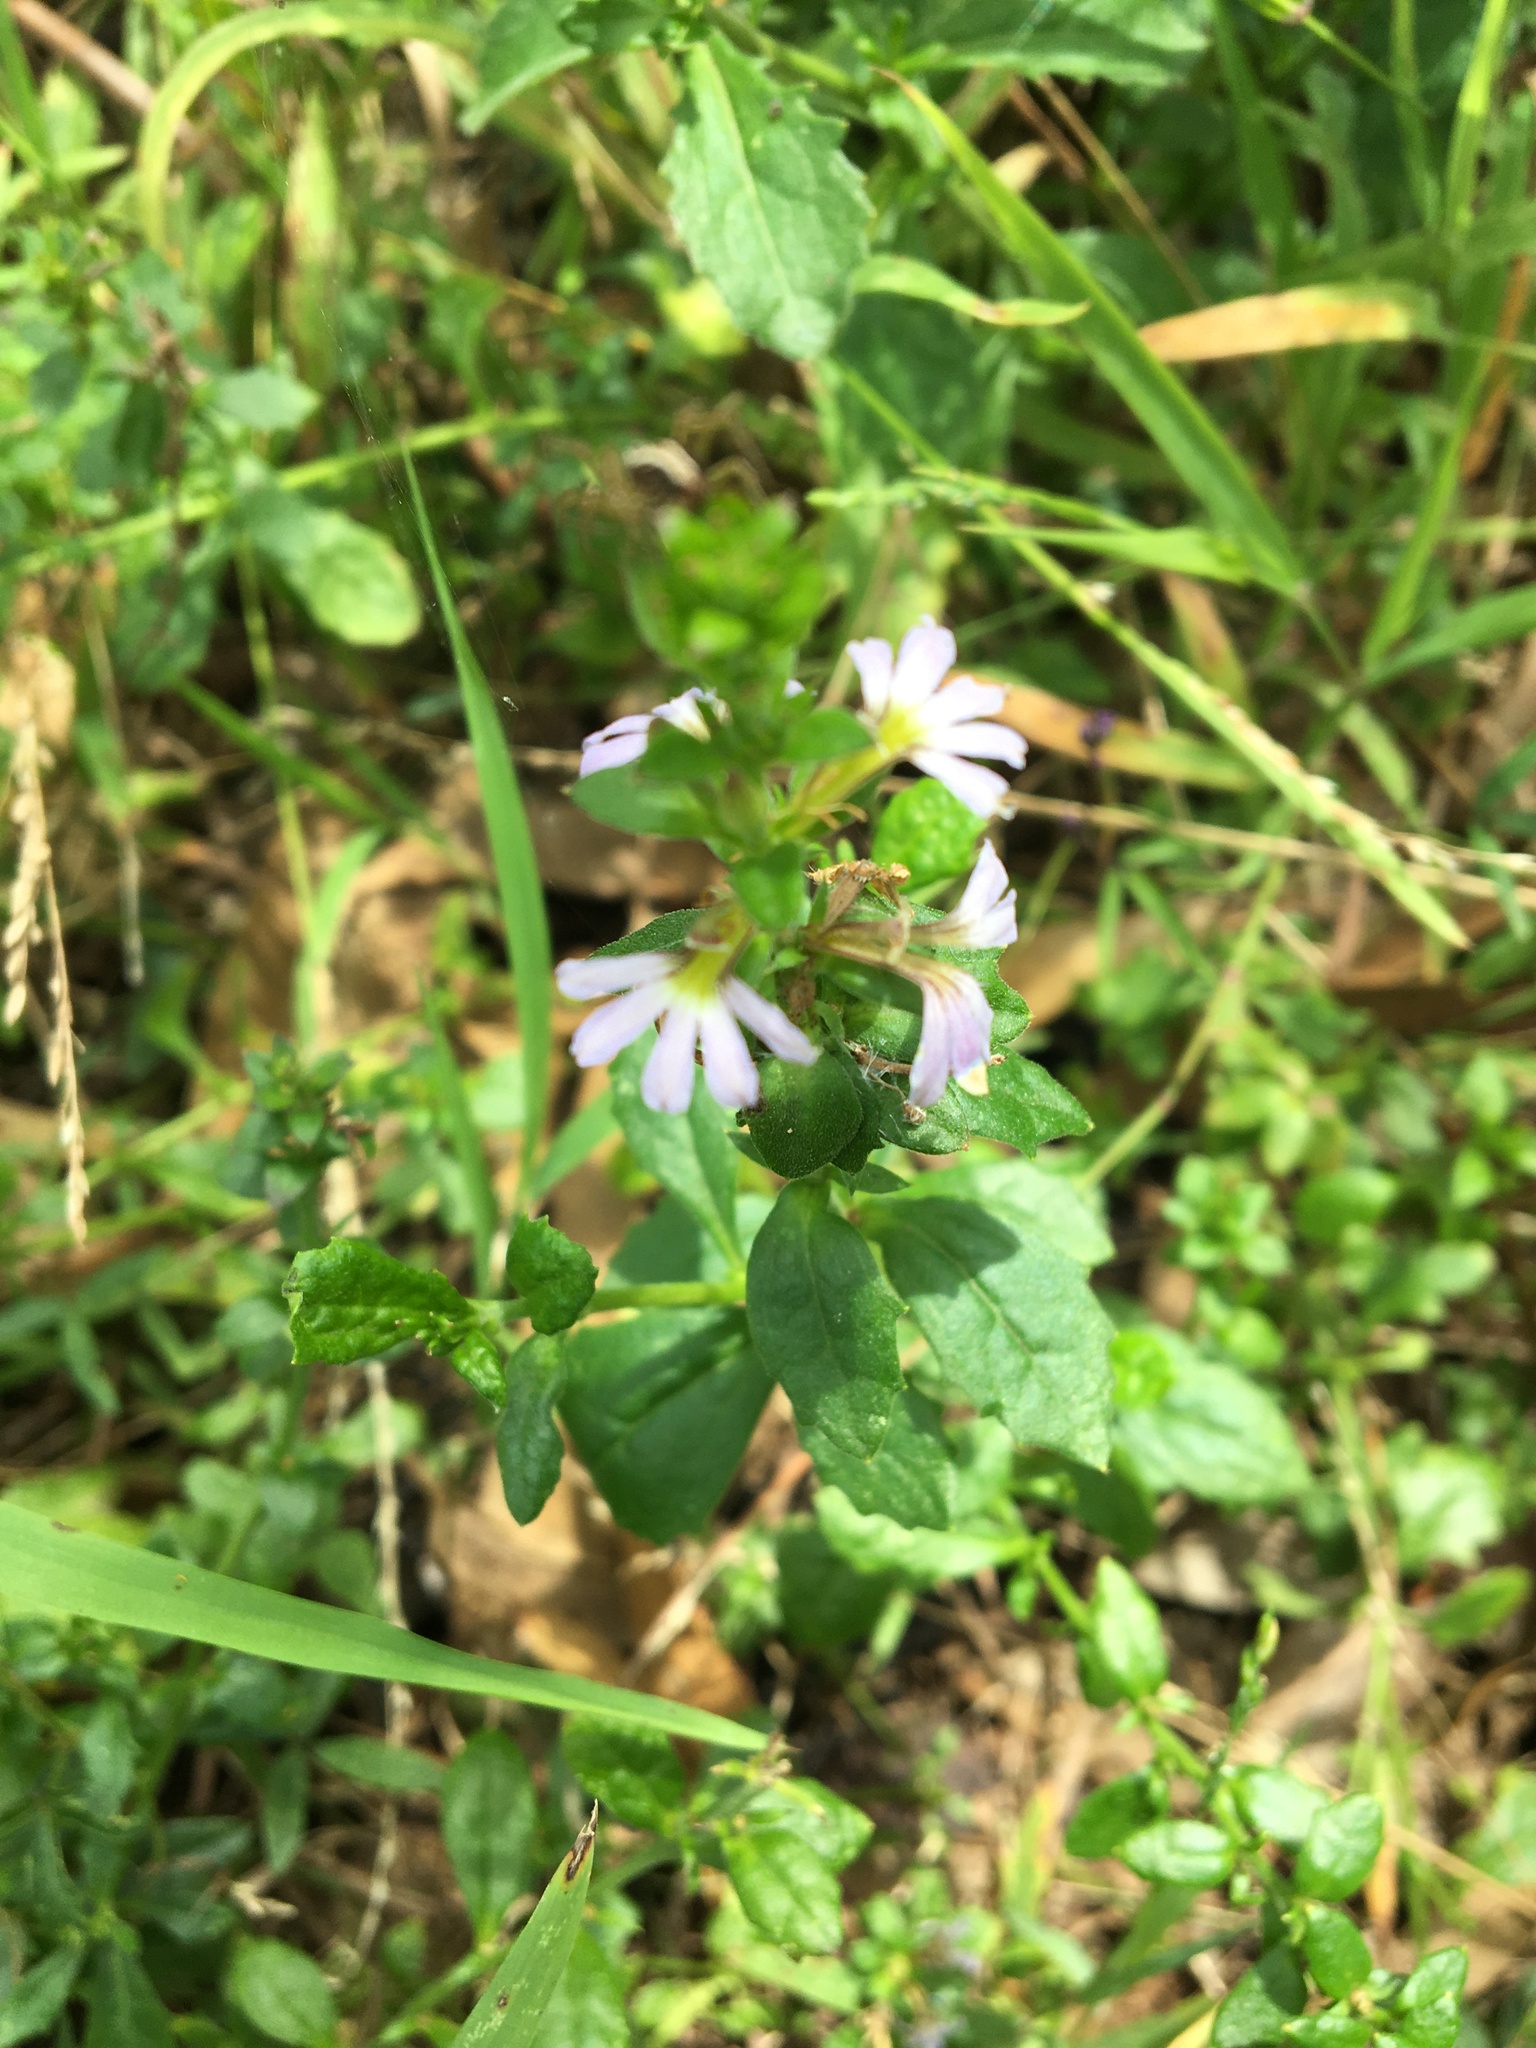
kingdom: Plantae
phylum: Tracheophyta
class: Magnoliopsida
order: Asterales
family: Goodeniaceae
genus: Scaevola
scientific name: Scaevola albida
